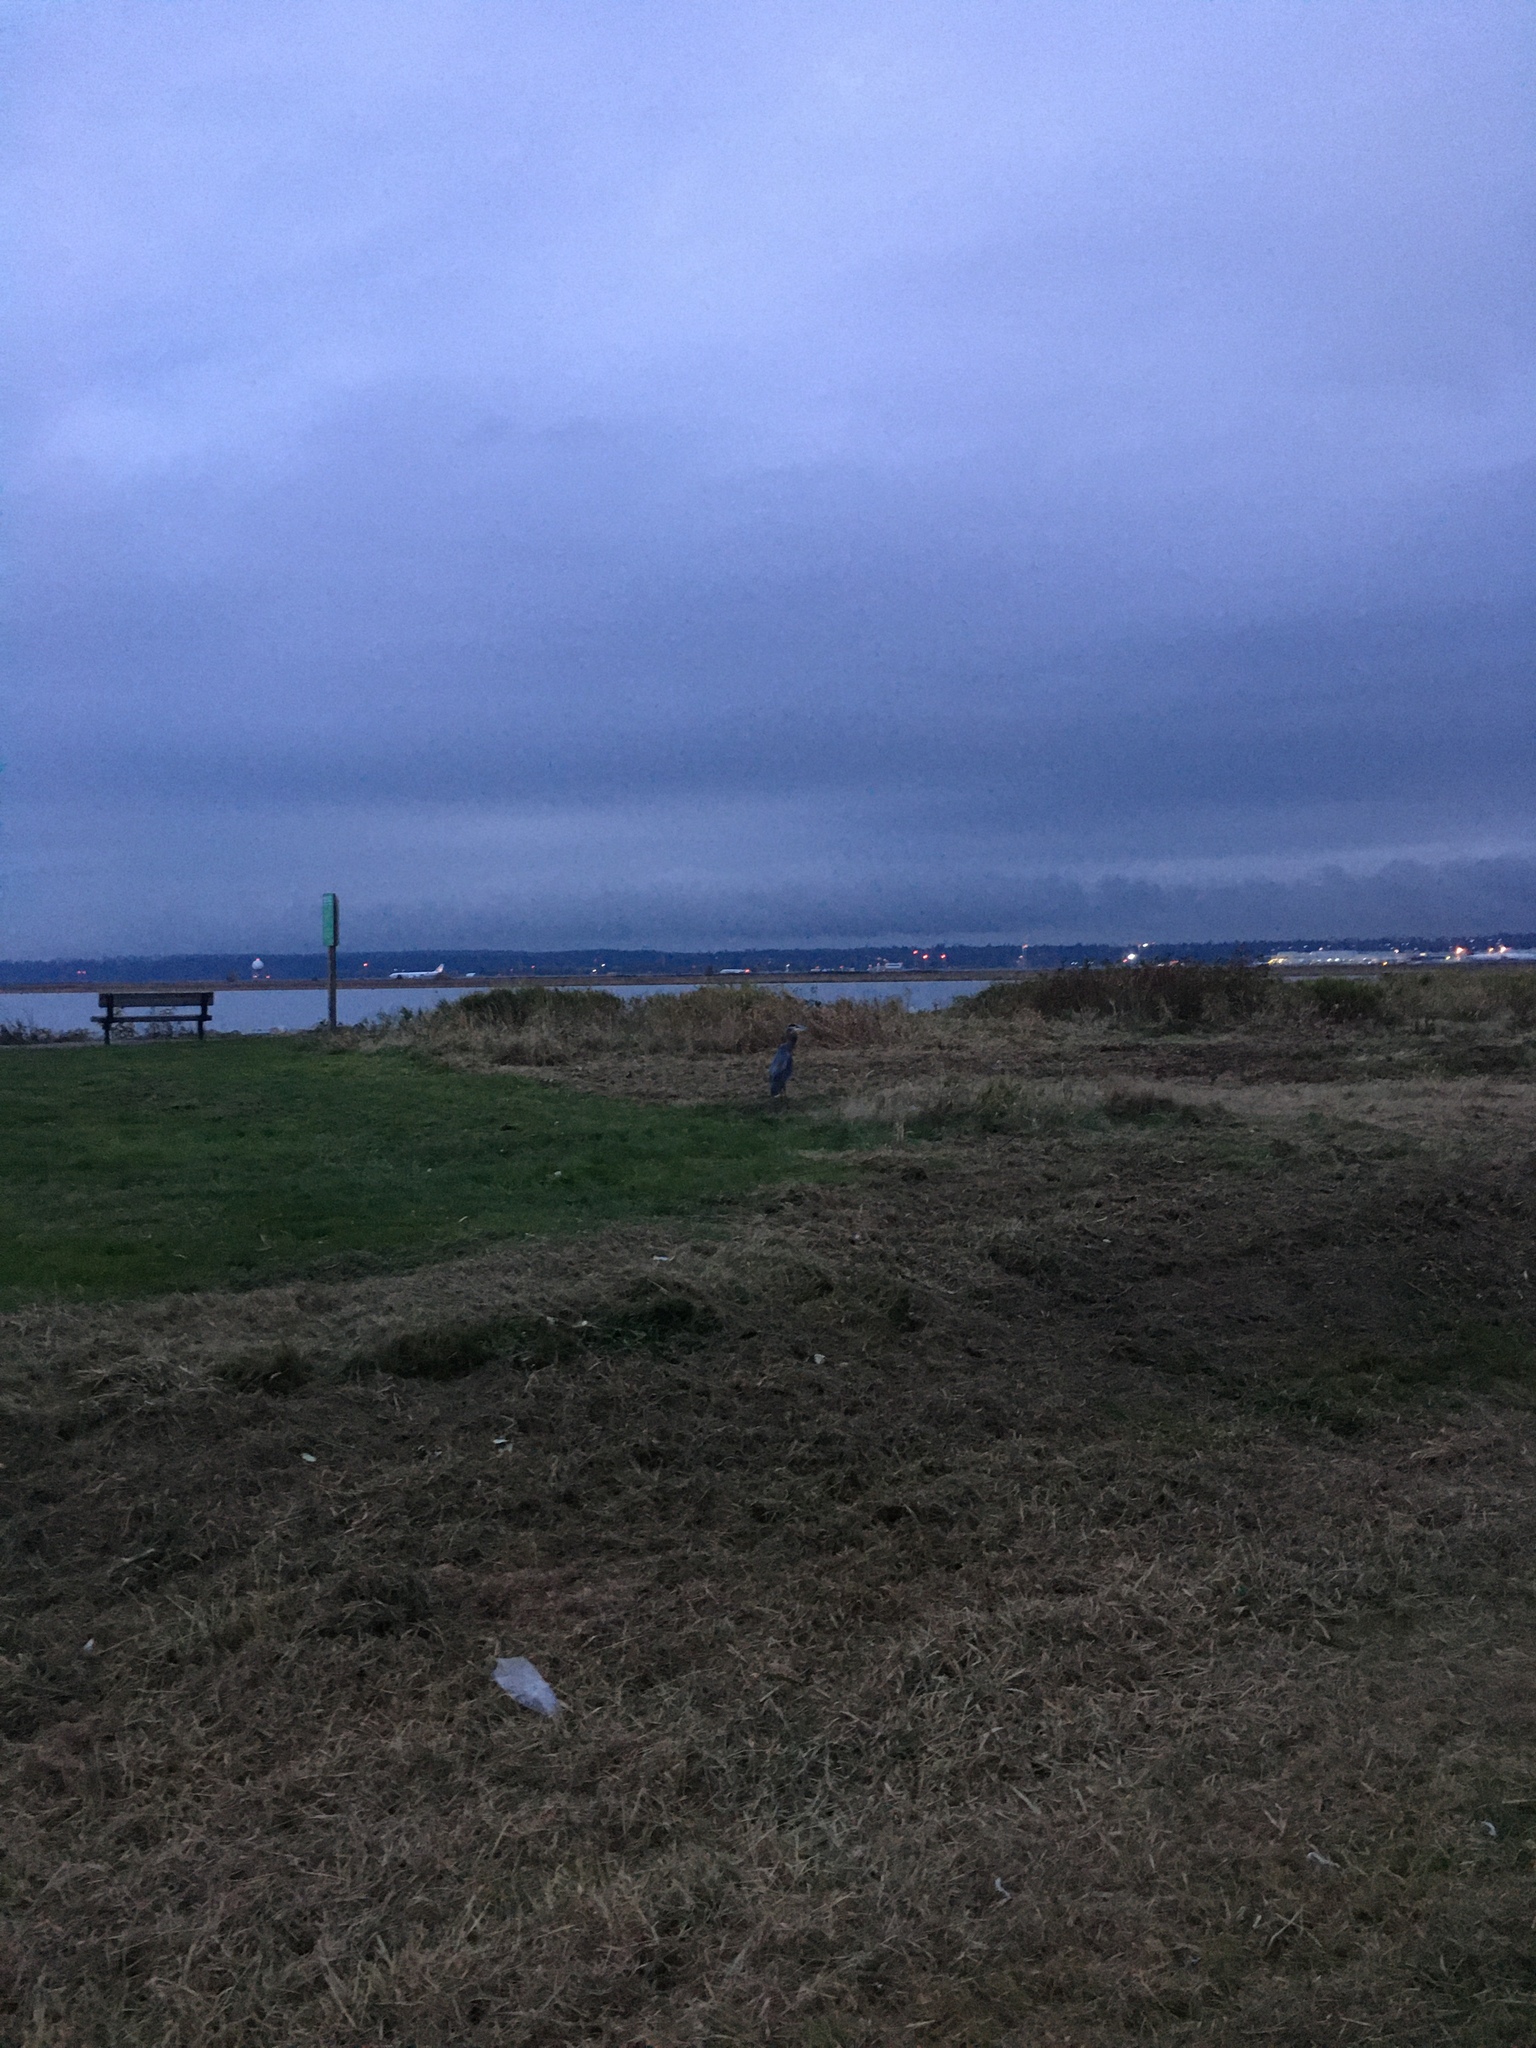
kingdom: Animalia
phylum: Chordata
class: Aves
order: Pelecaniformes
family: Ardeidae
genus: Ardea
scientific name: Ardea herodias
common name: Great blue heron
